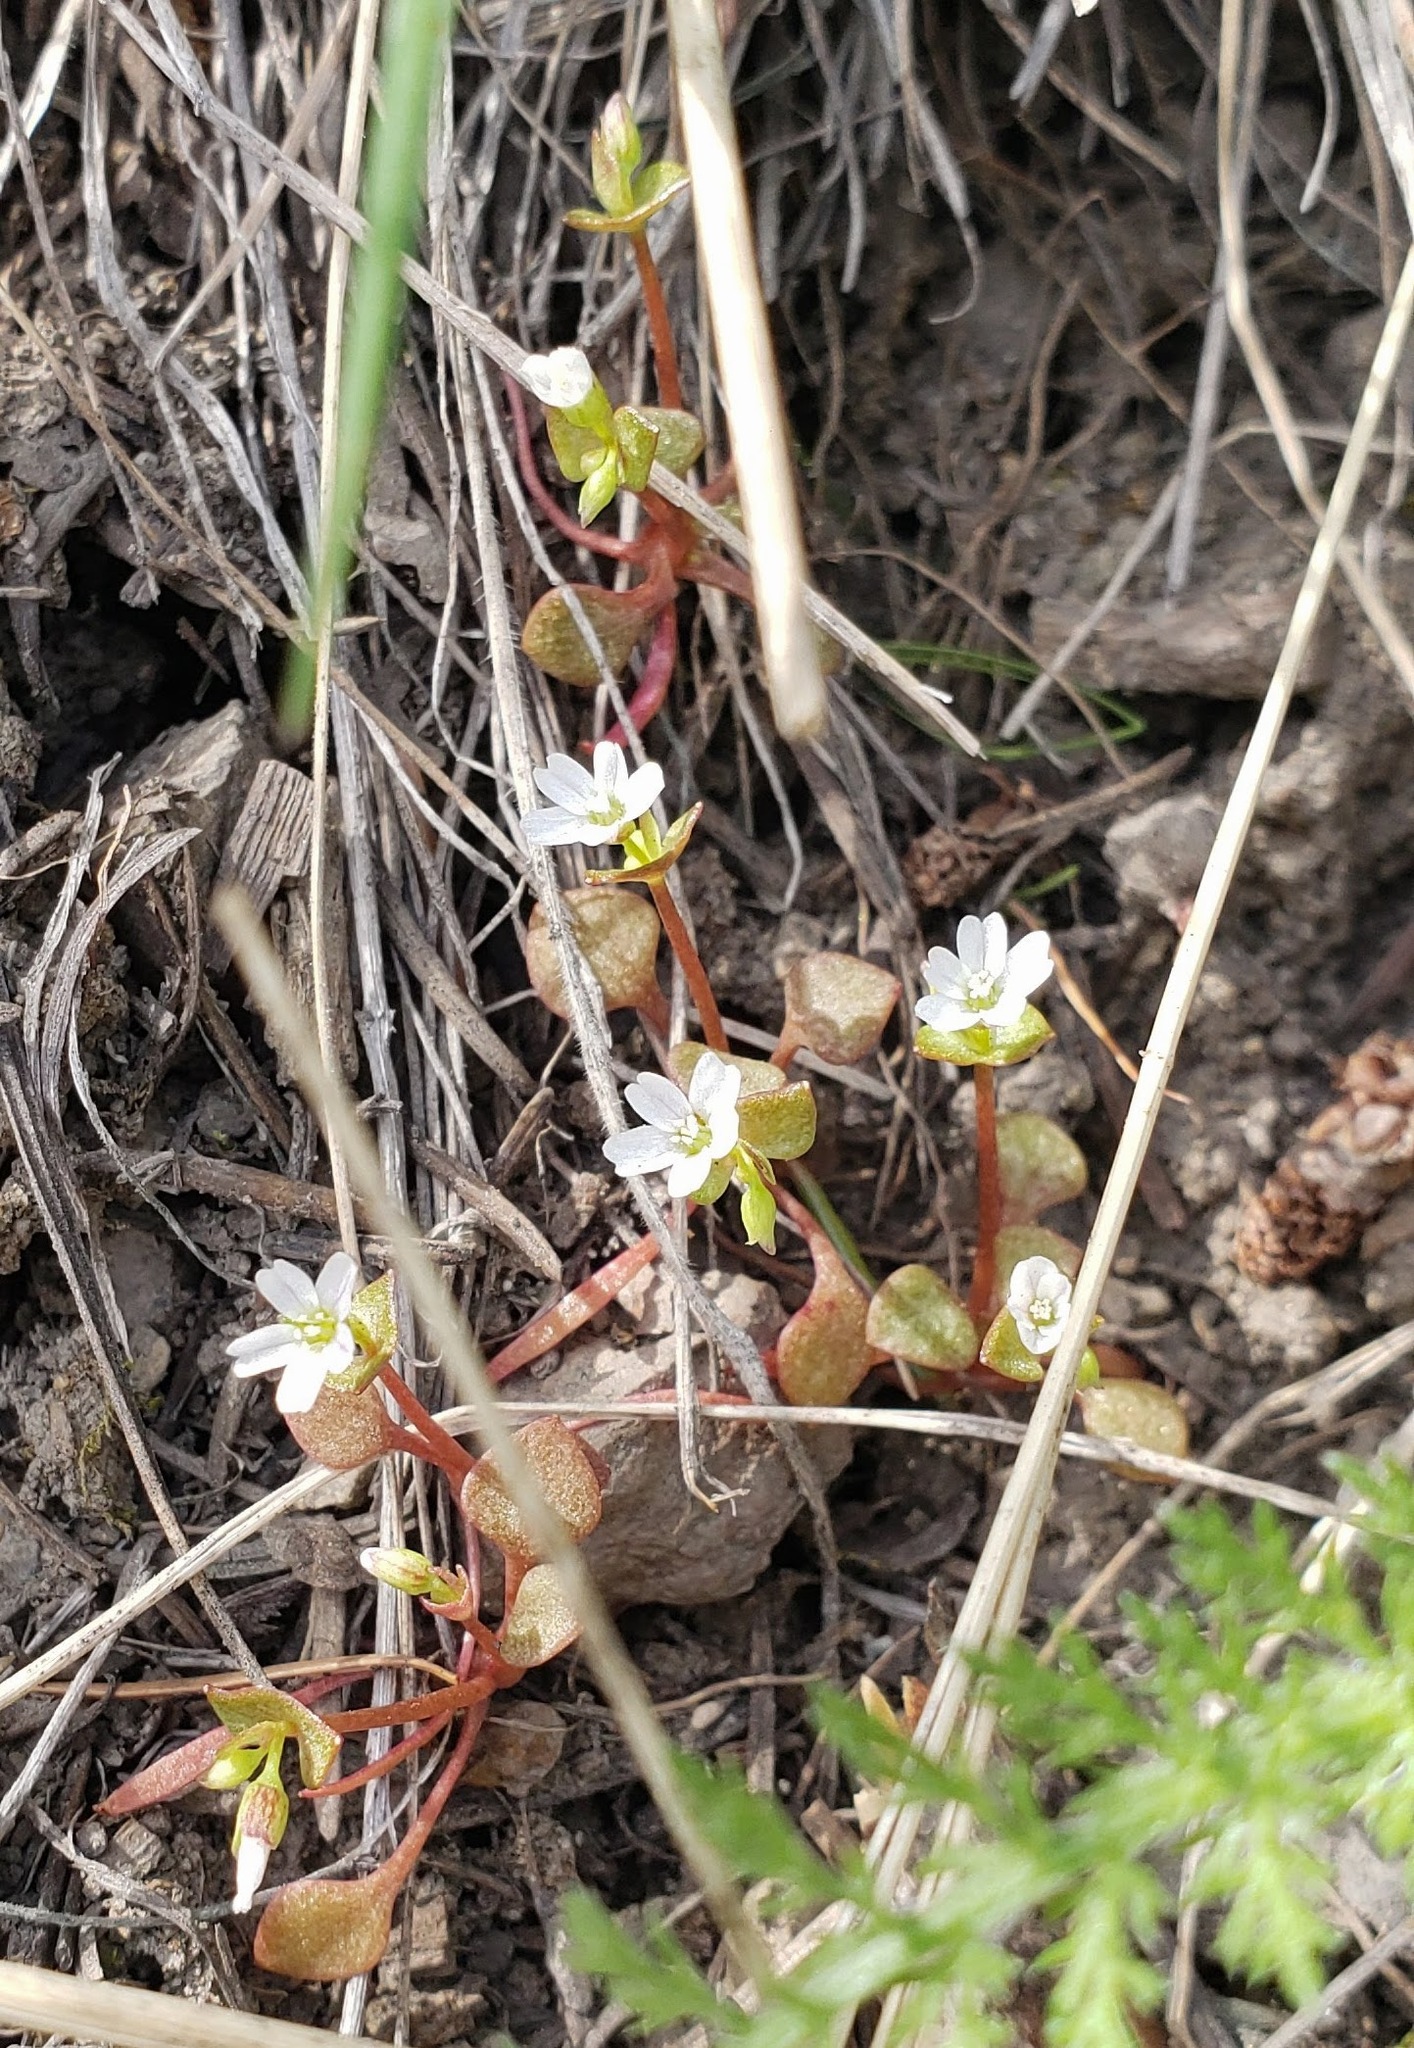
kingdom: Plantae
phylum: Tracheophyta
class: Magnoliopsida
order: Caryophyllales
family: Montiaceae
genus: Claytonia
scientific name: Claytonia rubra
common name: Erubescent miner's-lettuce
